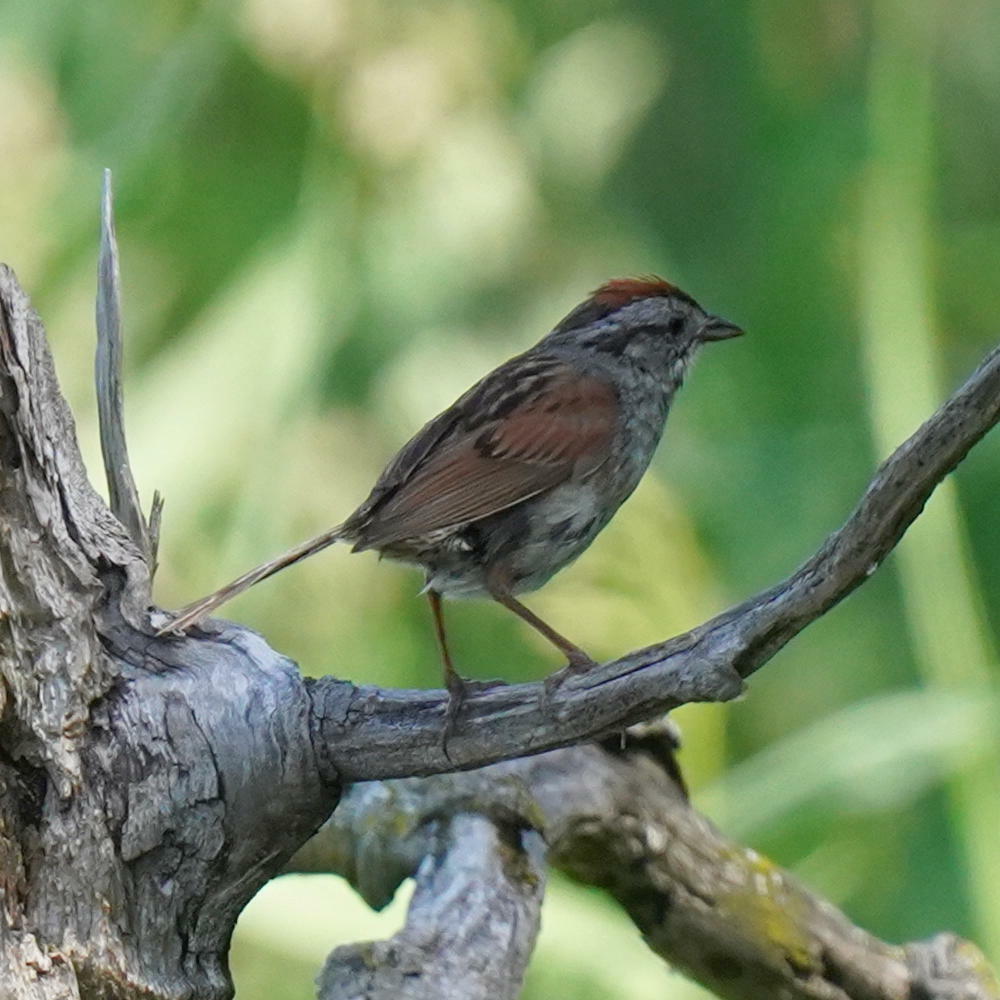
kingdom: Animalia
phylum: Chordata
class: Aves
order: Passeriformes
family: Passerellidae
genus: Melospiza
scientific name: Melospiza georgiana
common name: Swamp sparrow
